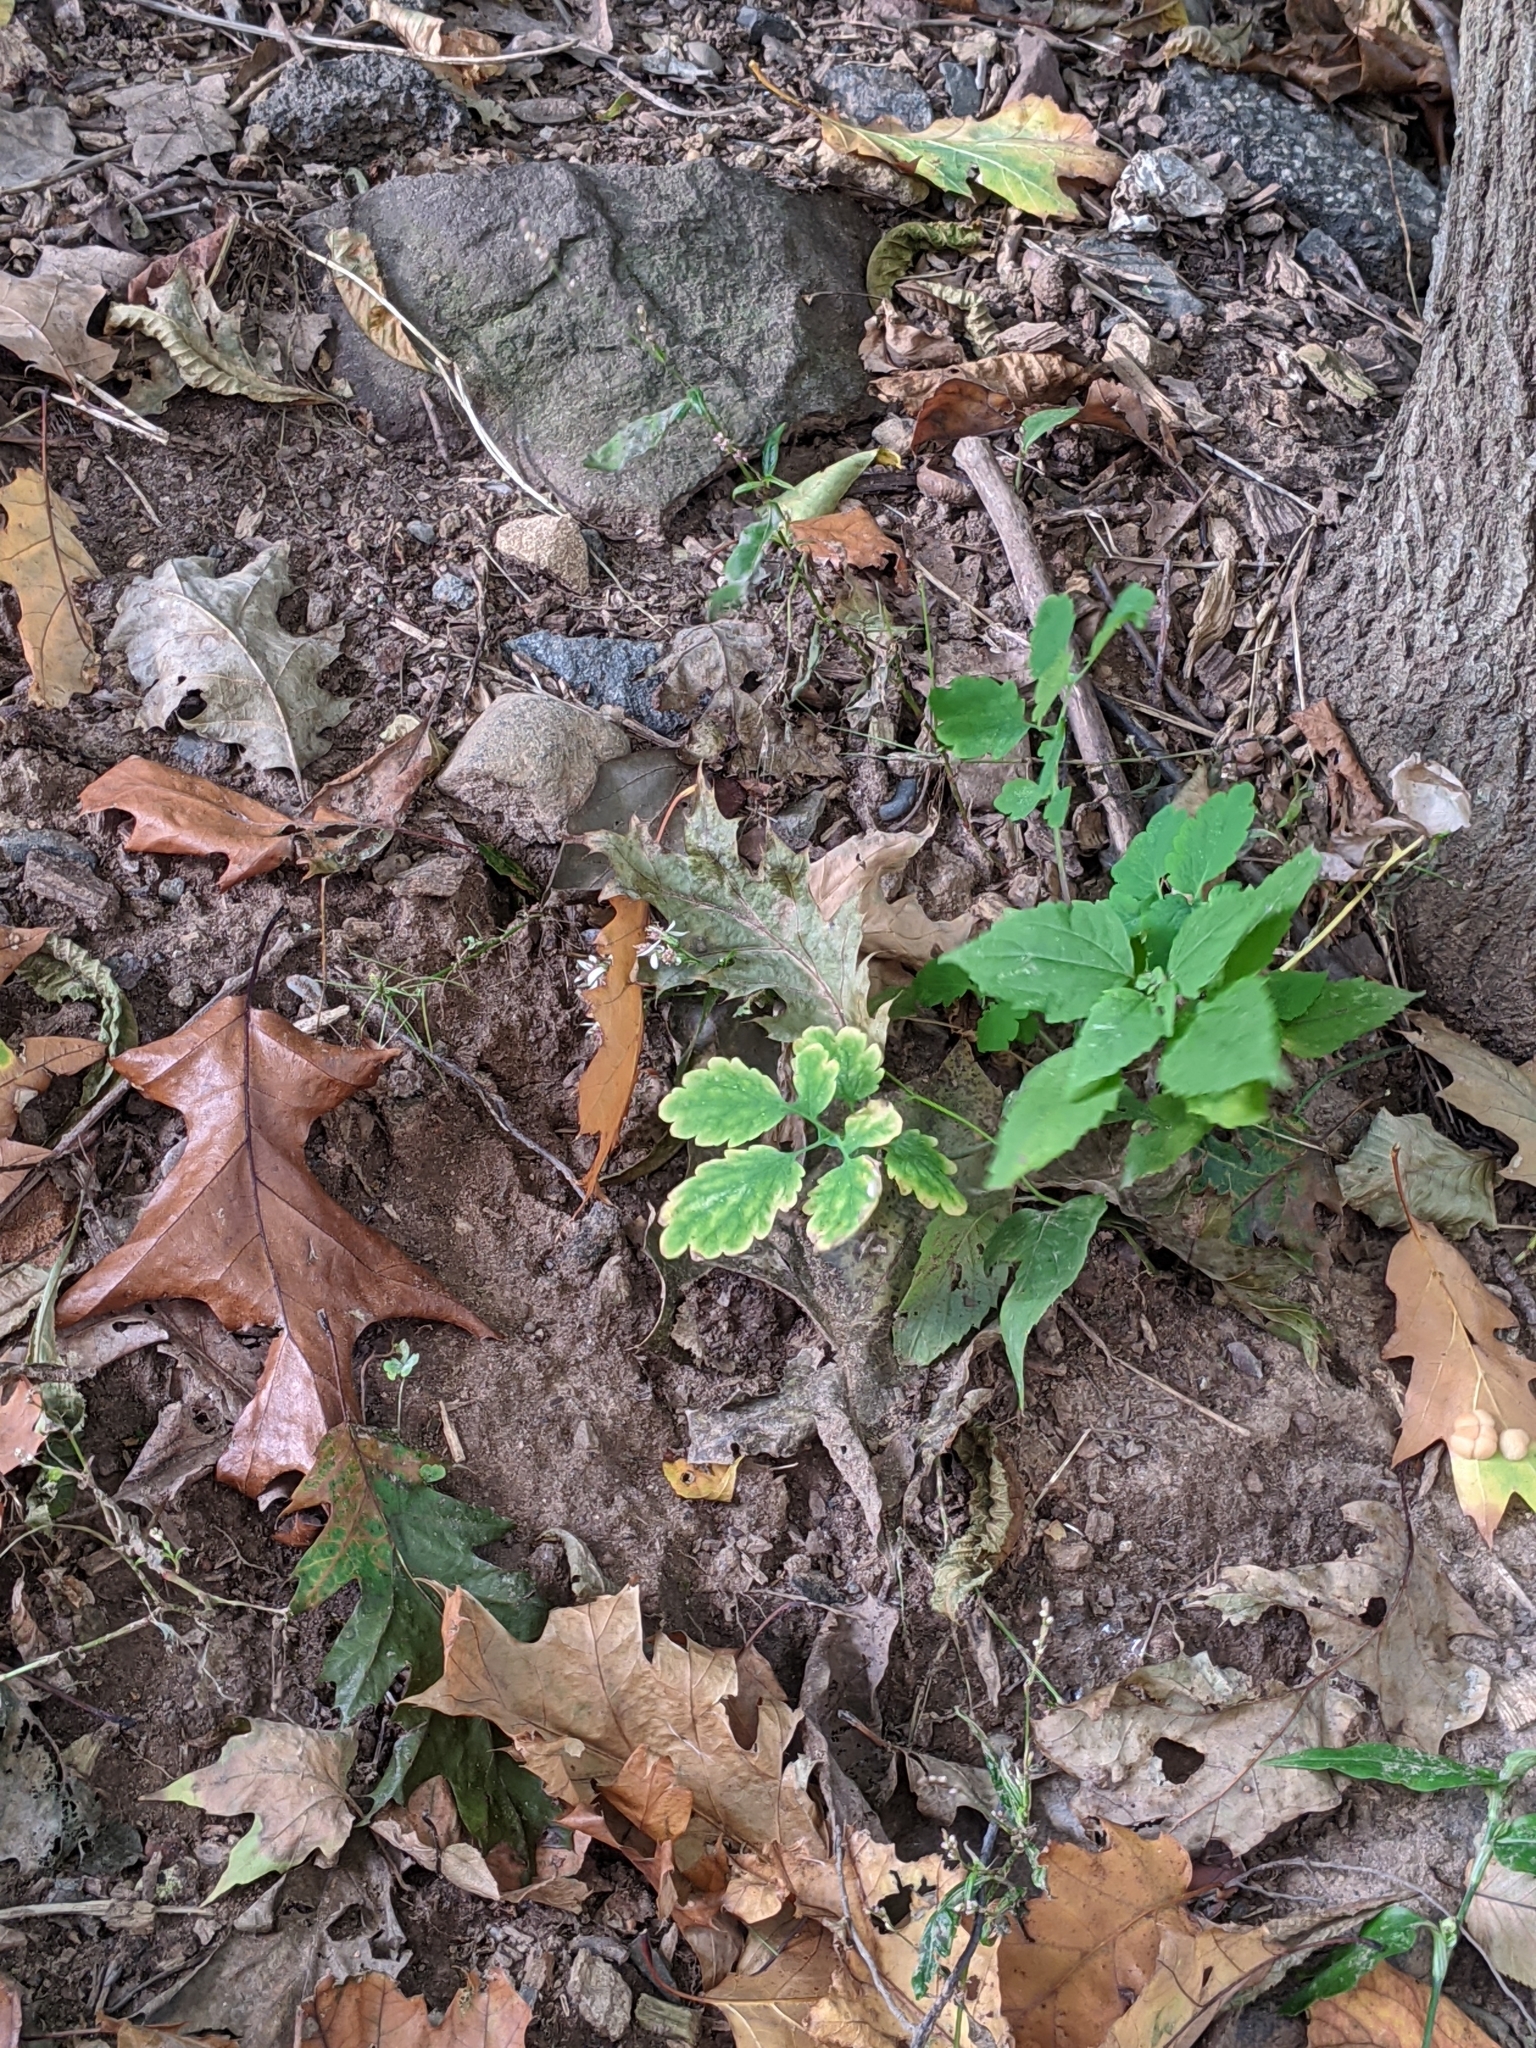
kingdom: Plantae
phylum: Tracheophyta
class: Magnoliopsida
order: Ranunculales
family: Papaveraceae
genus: Chelidonium
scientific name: Chelidonium majus
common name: Greater celandine
